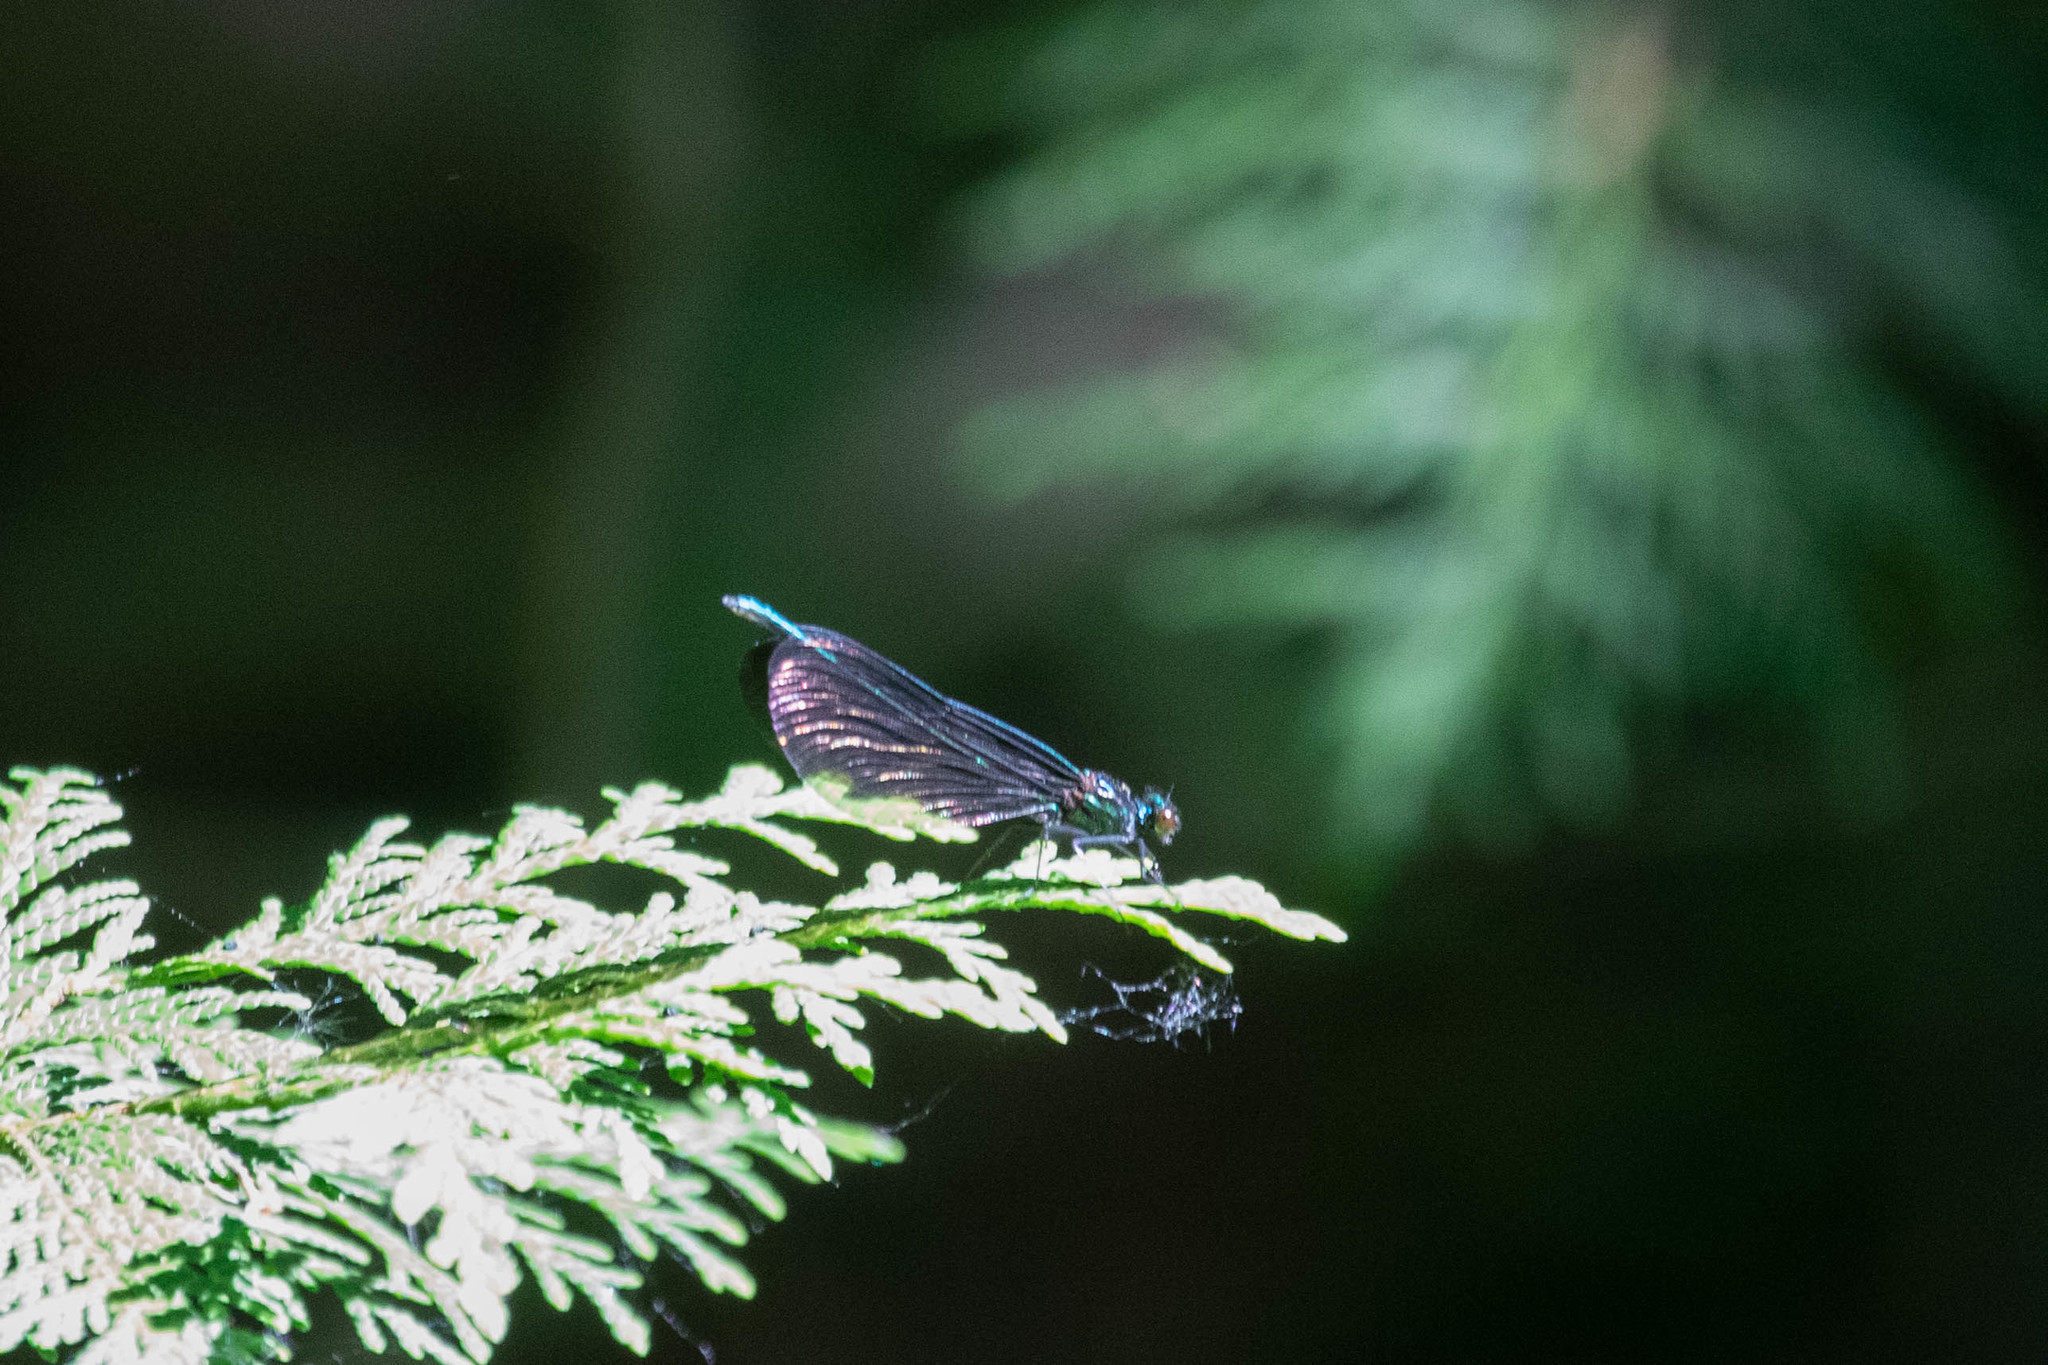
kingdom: Animalia
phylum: Arthropoda
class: Insecta
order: Odonata
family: Calopterygidae
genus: Calopteryx
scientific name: Calopteryx maculata
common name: Ebony jewelwing
